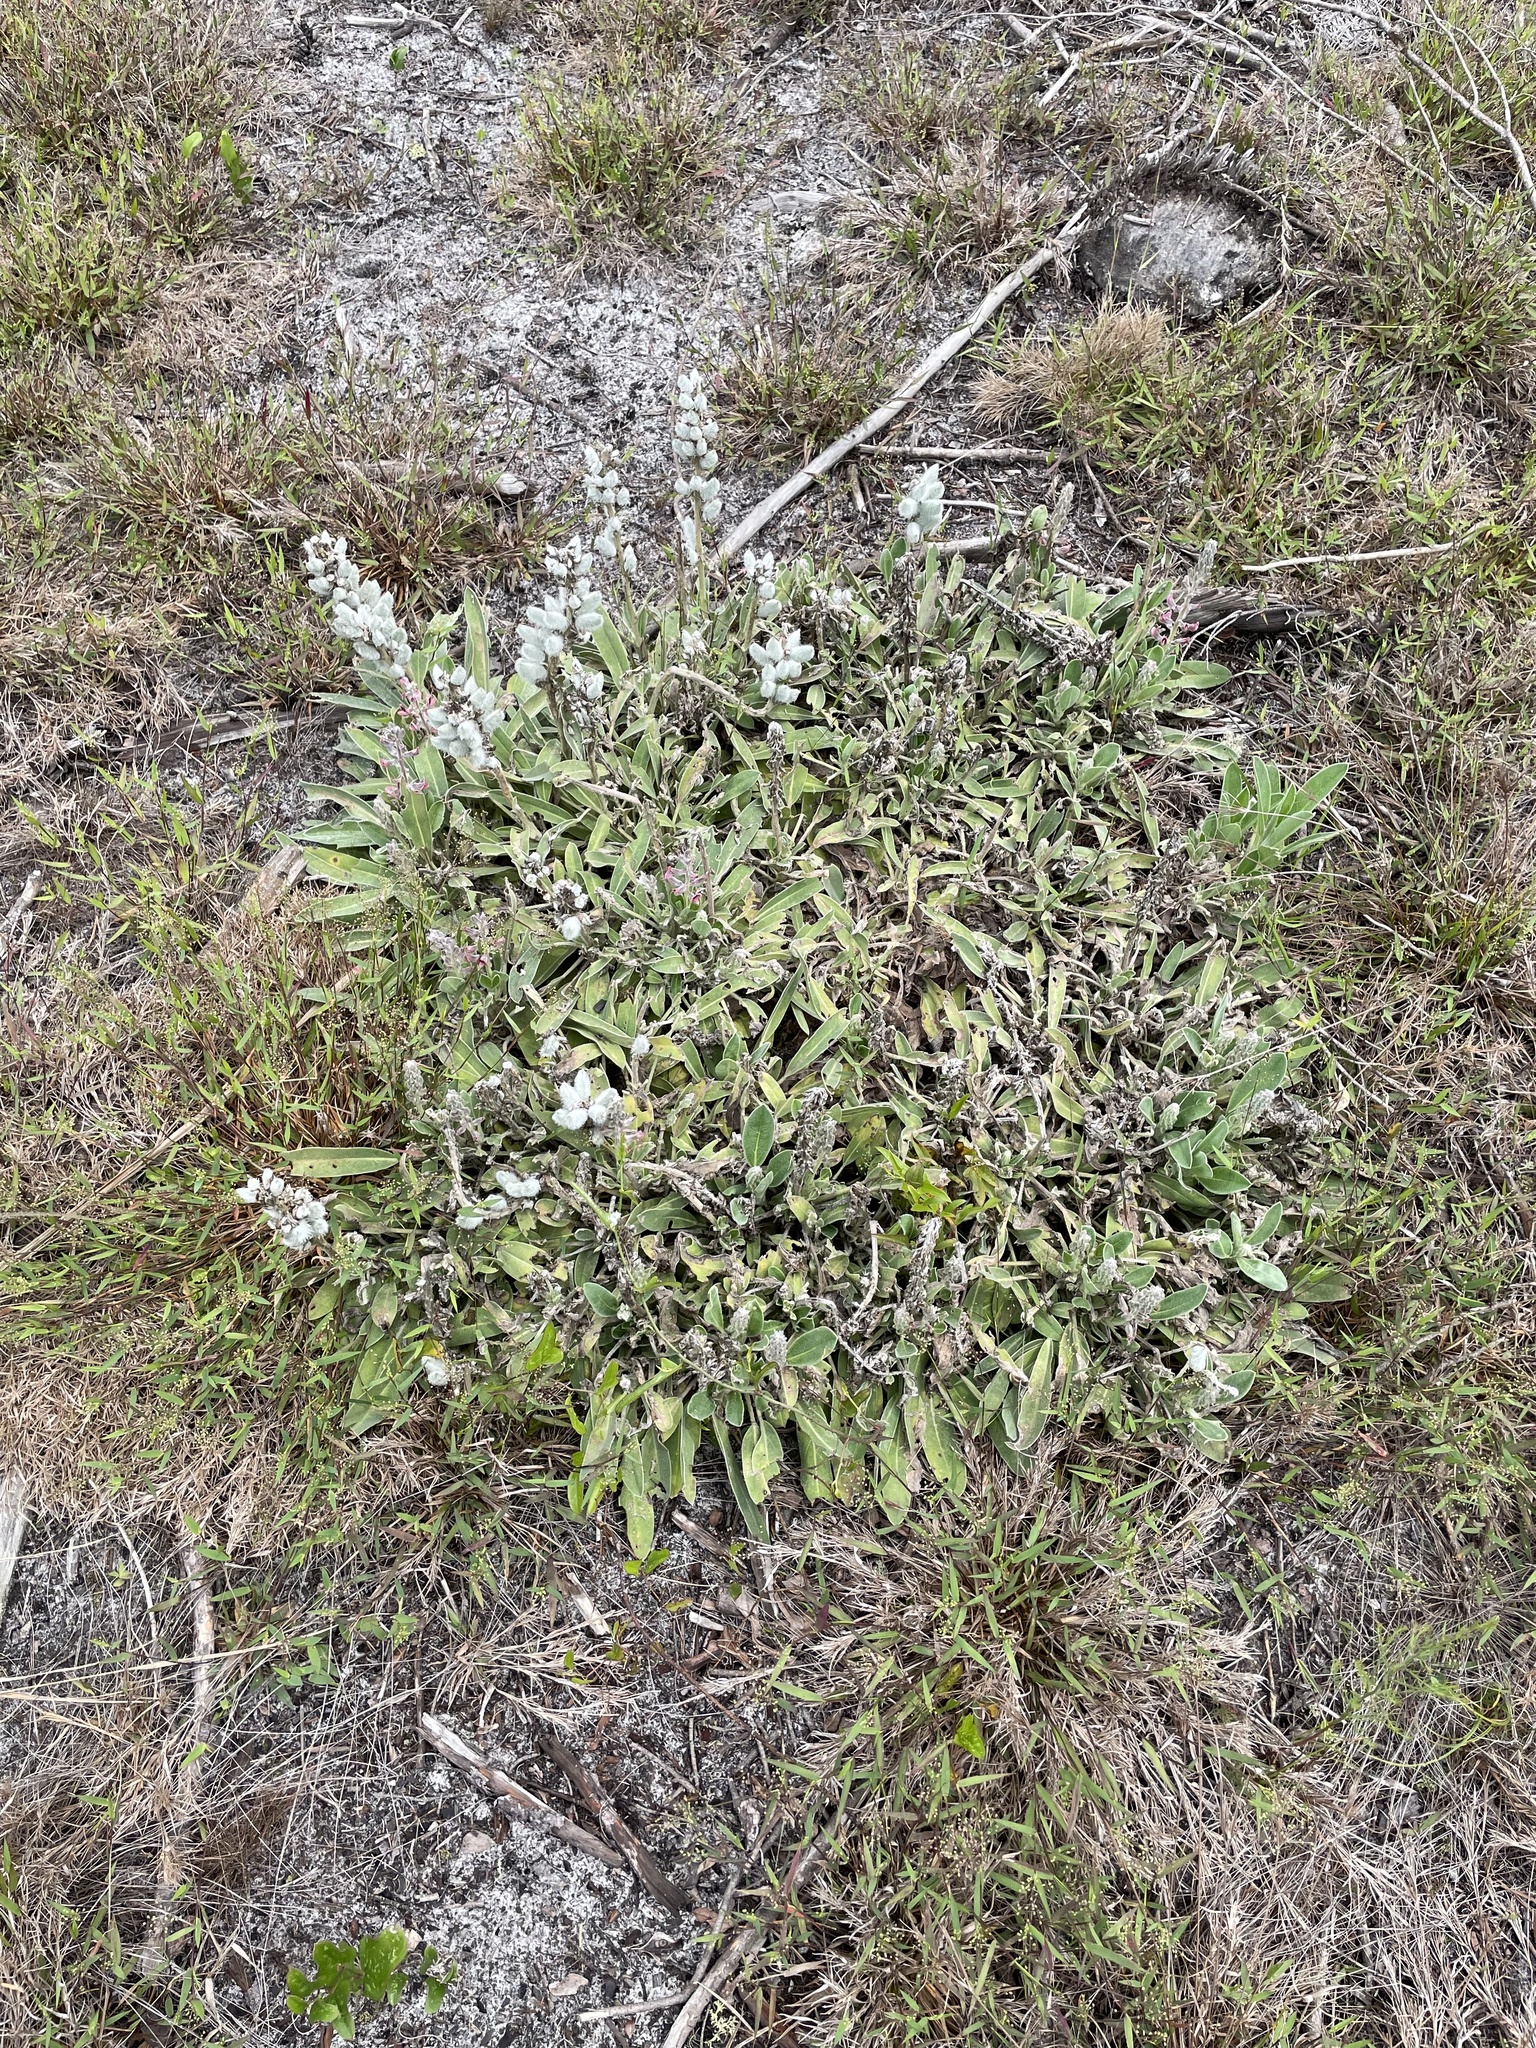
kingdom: Plantae
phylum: Tracheophyta
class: Magnoliopsida
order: Fabales
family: Fabaceae
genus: Lupinus
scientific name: Lupinus villosus
